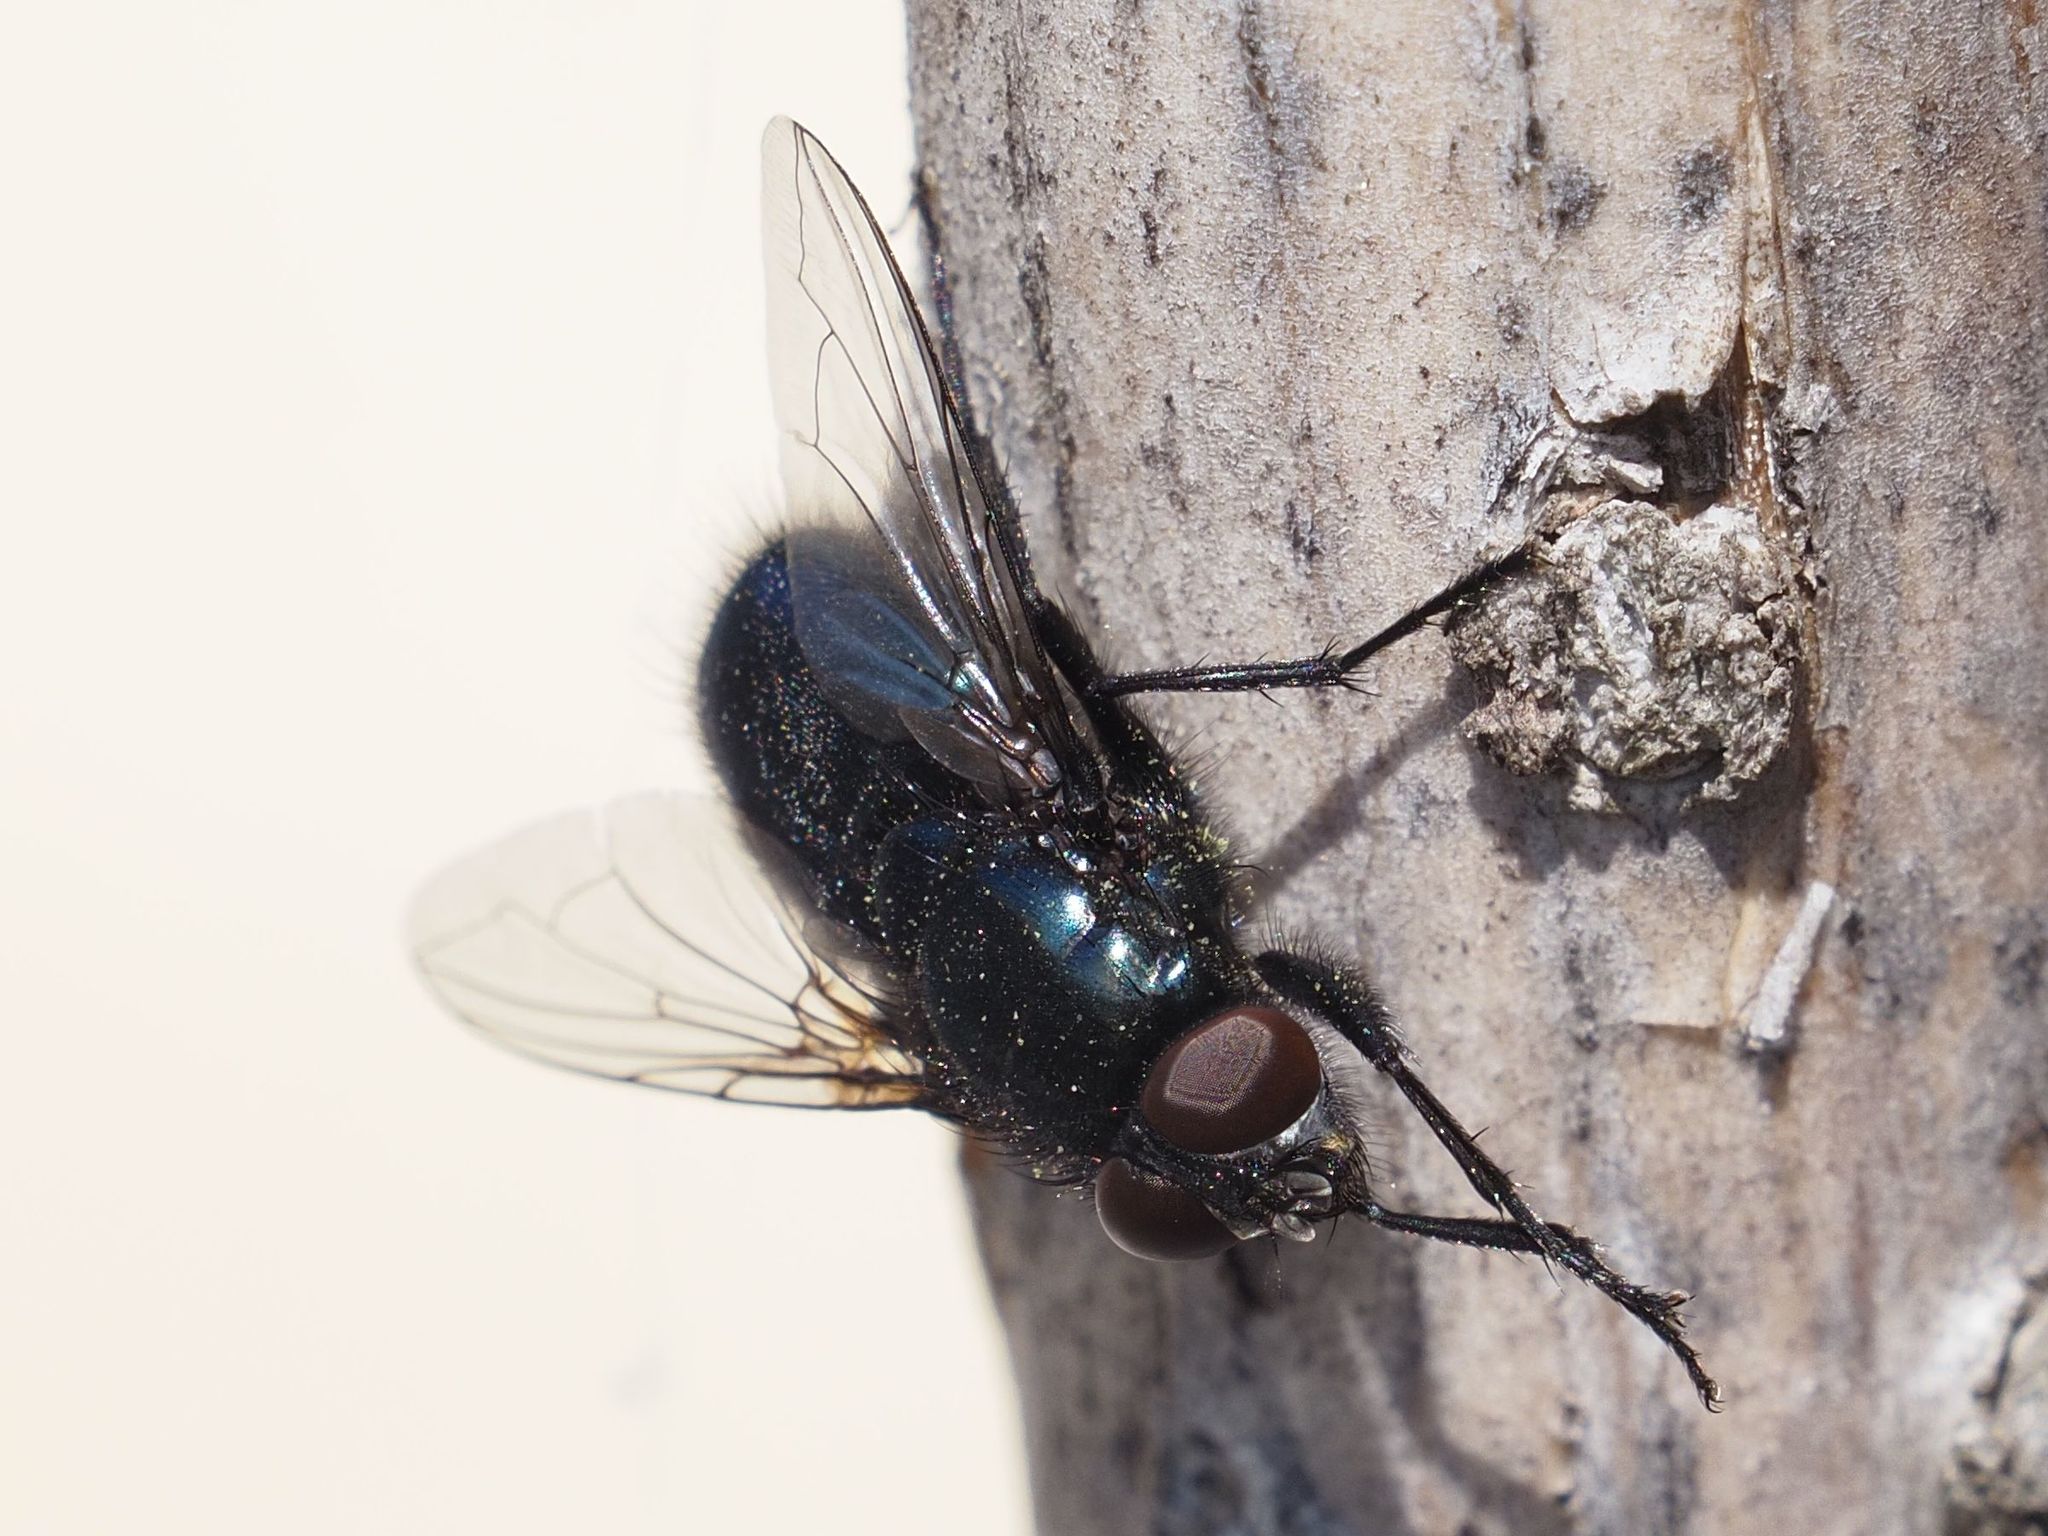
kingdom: Animalia
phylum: Arthropoda
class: Insecta
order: Diptera
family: Calliphoridae
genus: Protophormia
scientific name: Protophormia terraenovae
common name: Blackbottle
